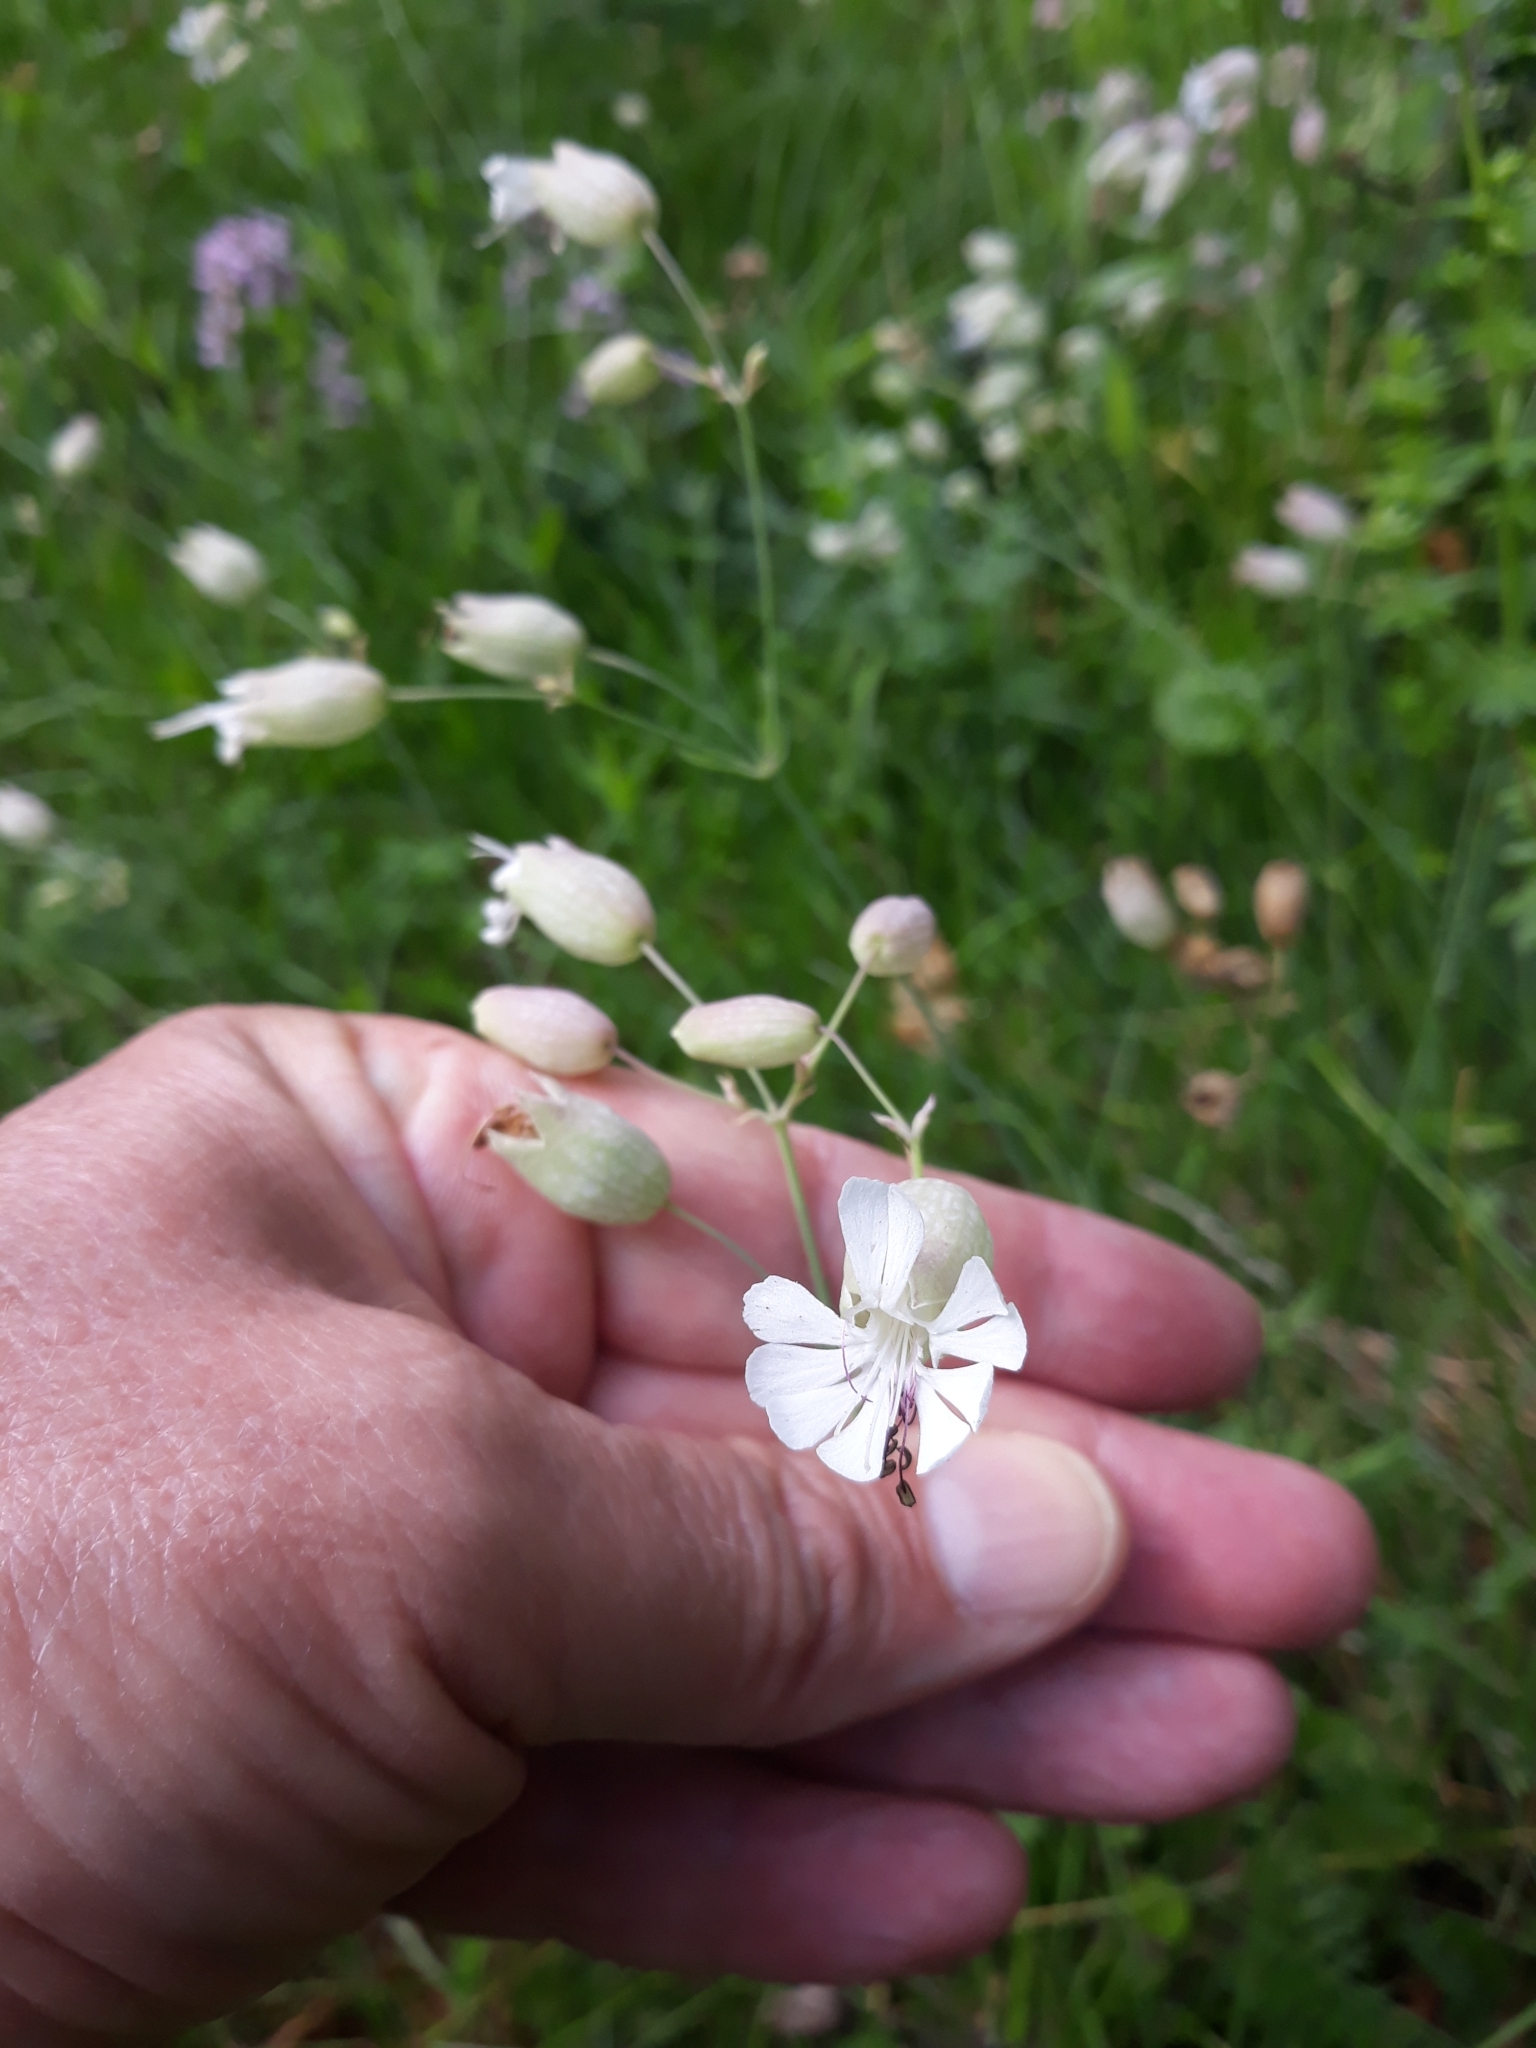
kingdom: Plantae
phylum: Tracheophyta
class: Magnoliopsida
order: Caryophyllales
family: Caryophyllaceae
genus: Silene
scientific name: Silene vulgaris
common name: Bladder campion
